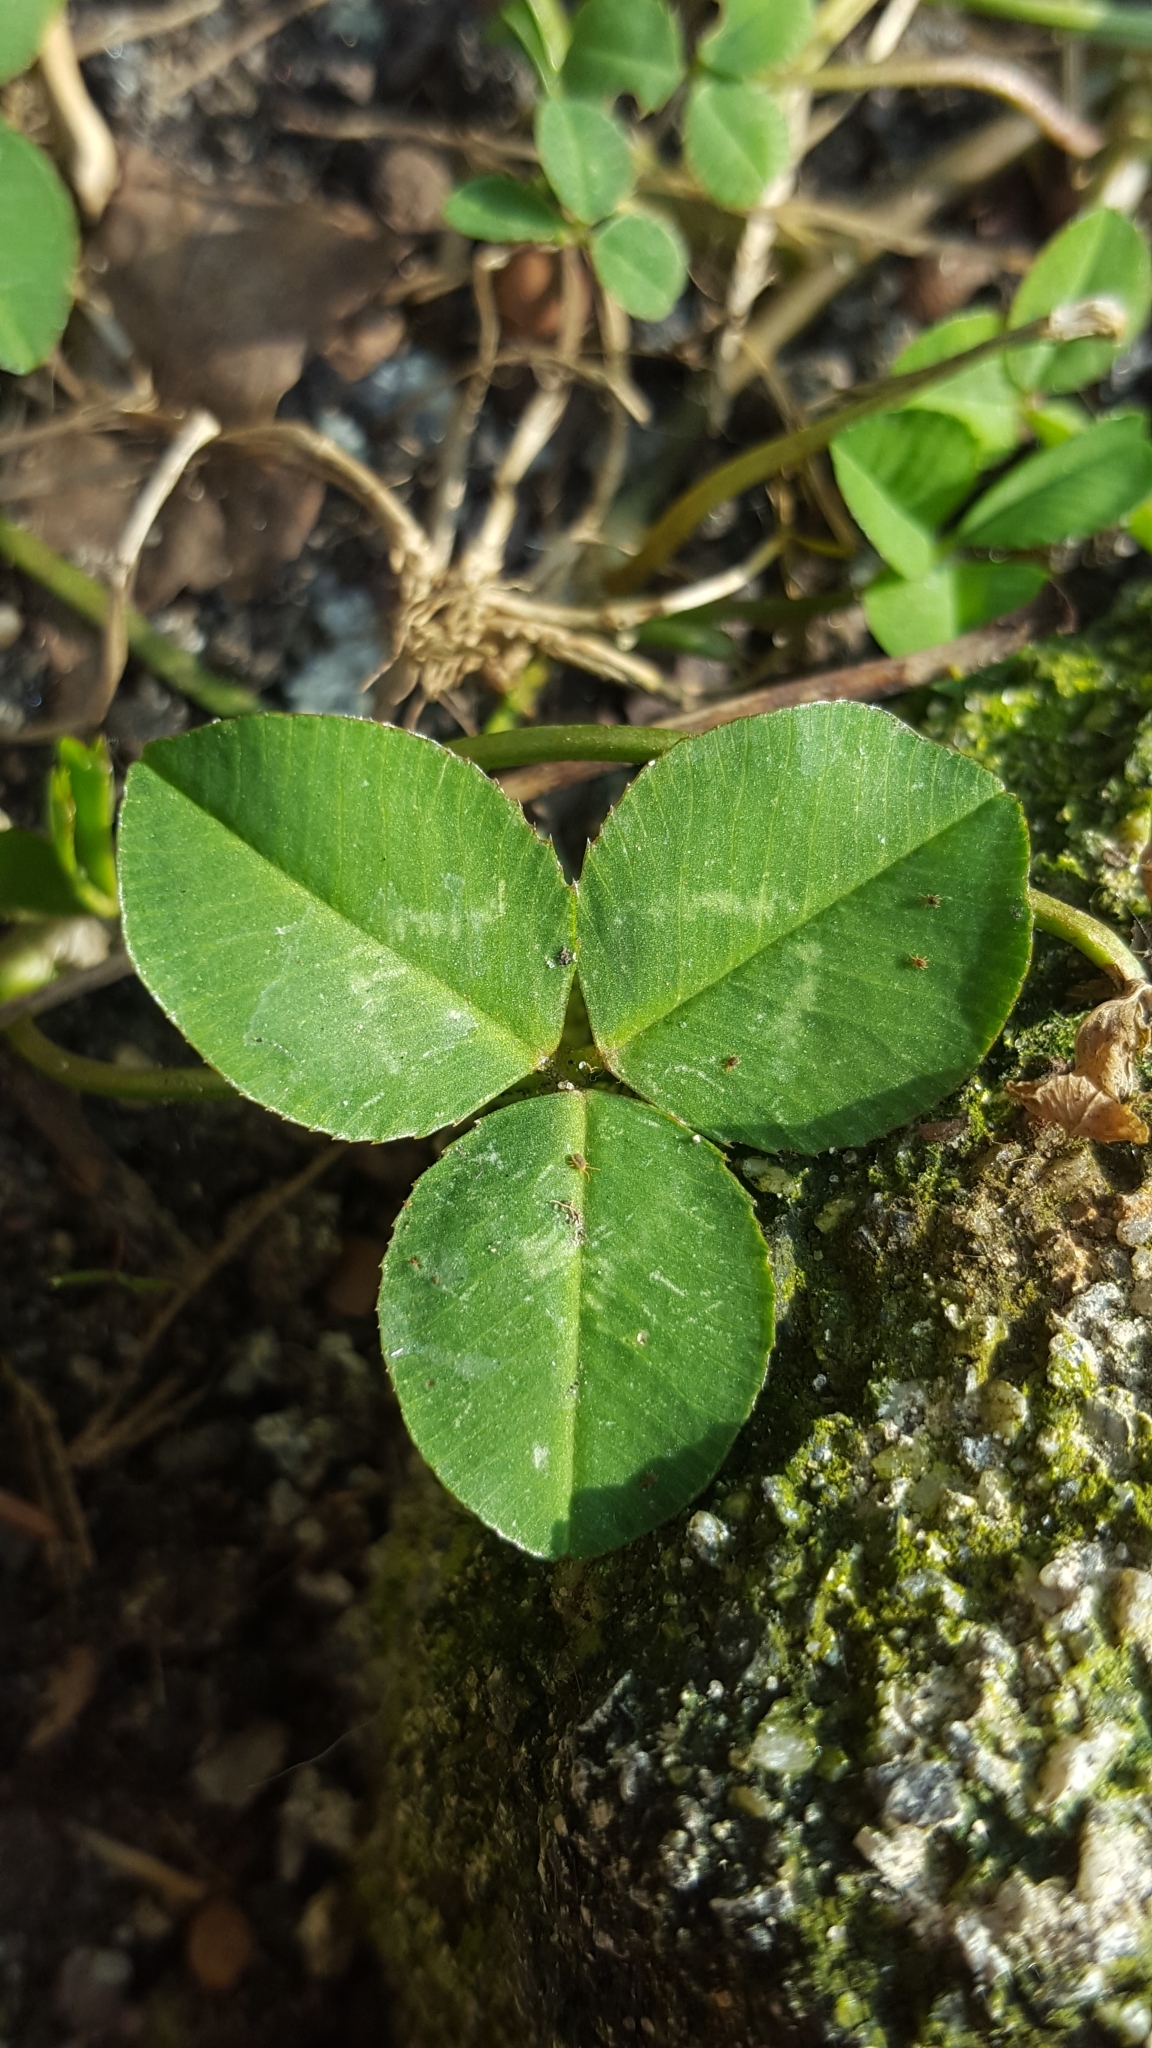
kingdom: Plantae
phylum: Tracheophyta
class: Magnoliopsida
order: Fabales
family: Fabaceae
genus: Trifolium
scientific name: Trifolium repens
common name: White clover
